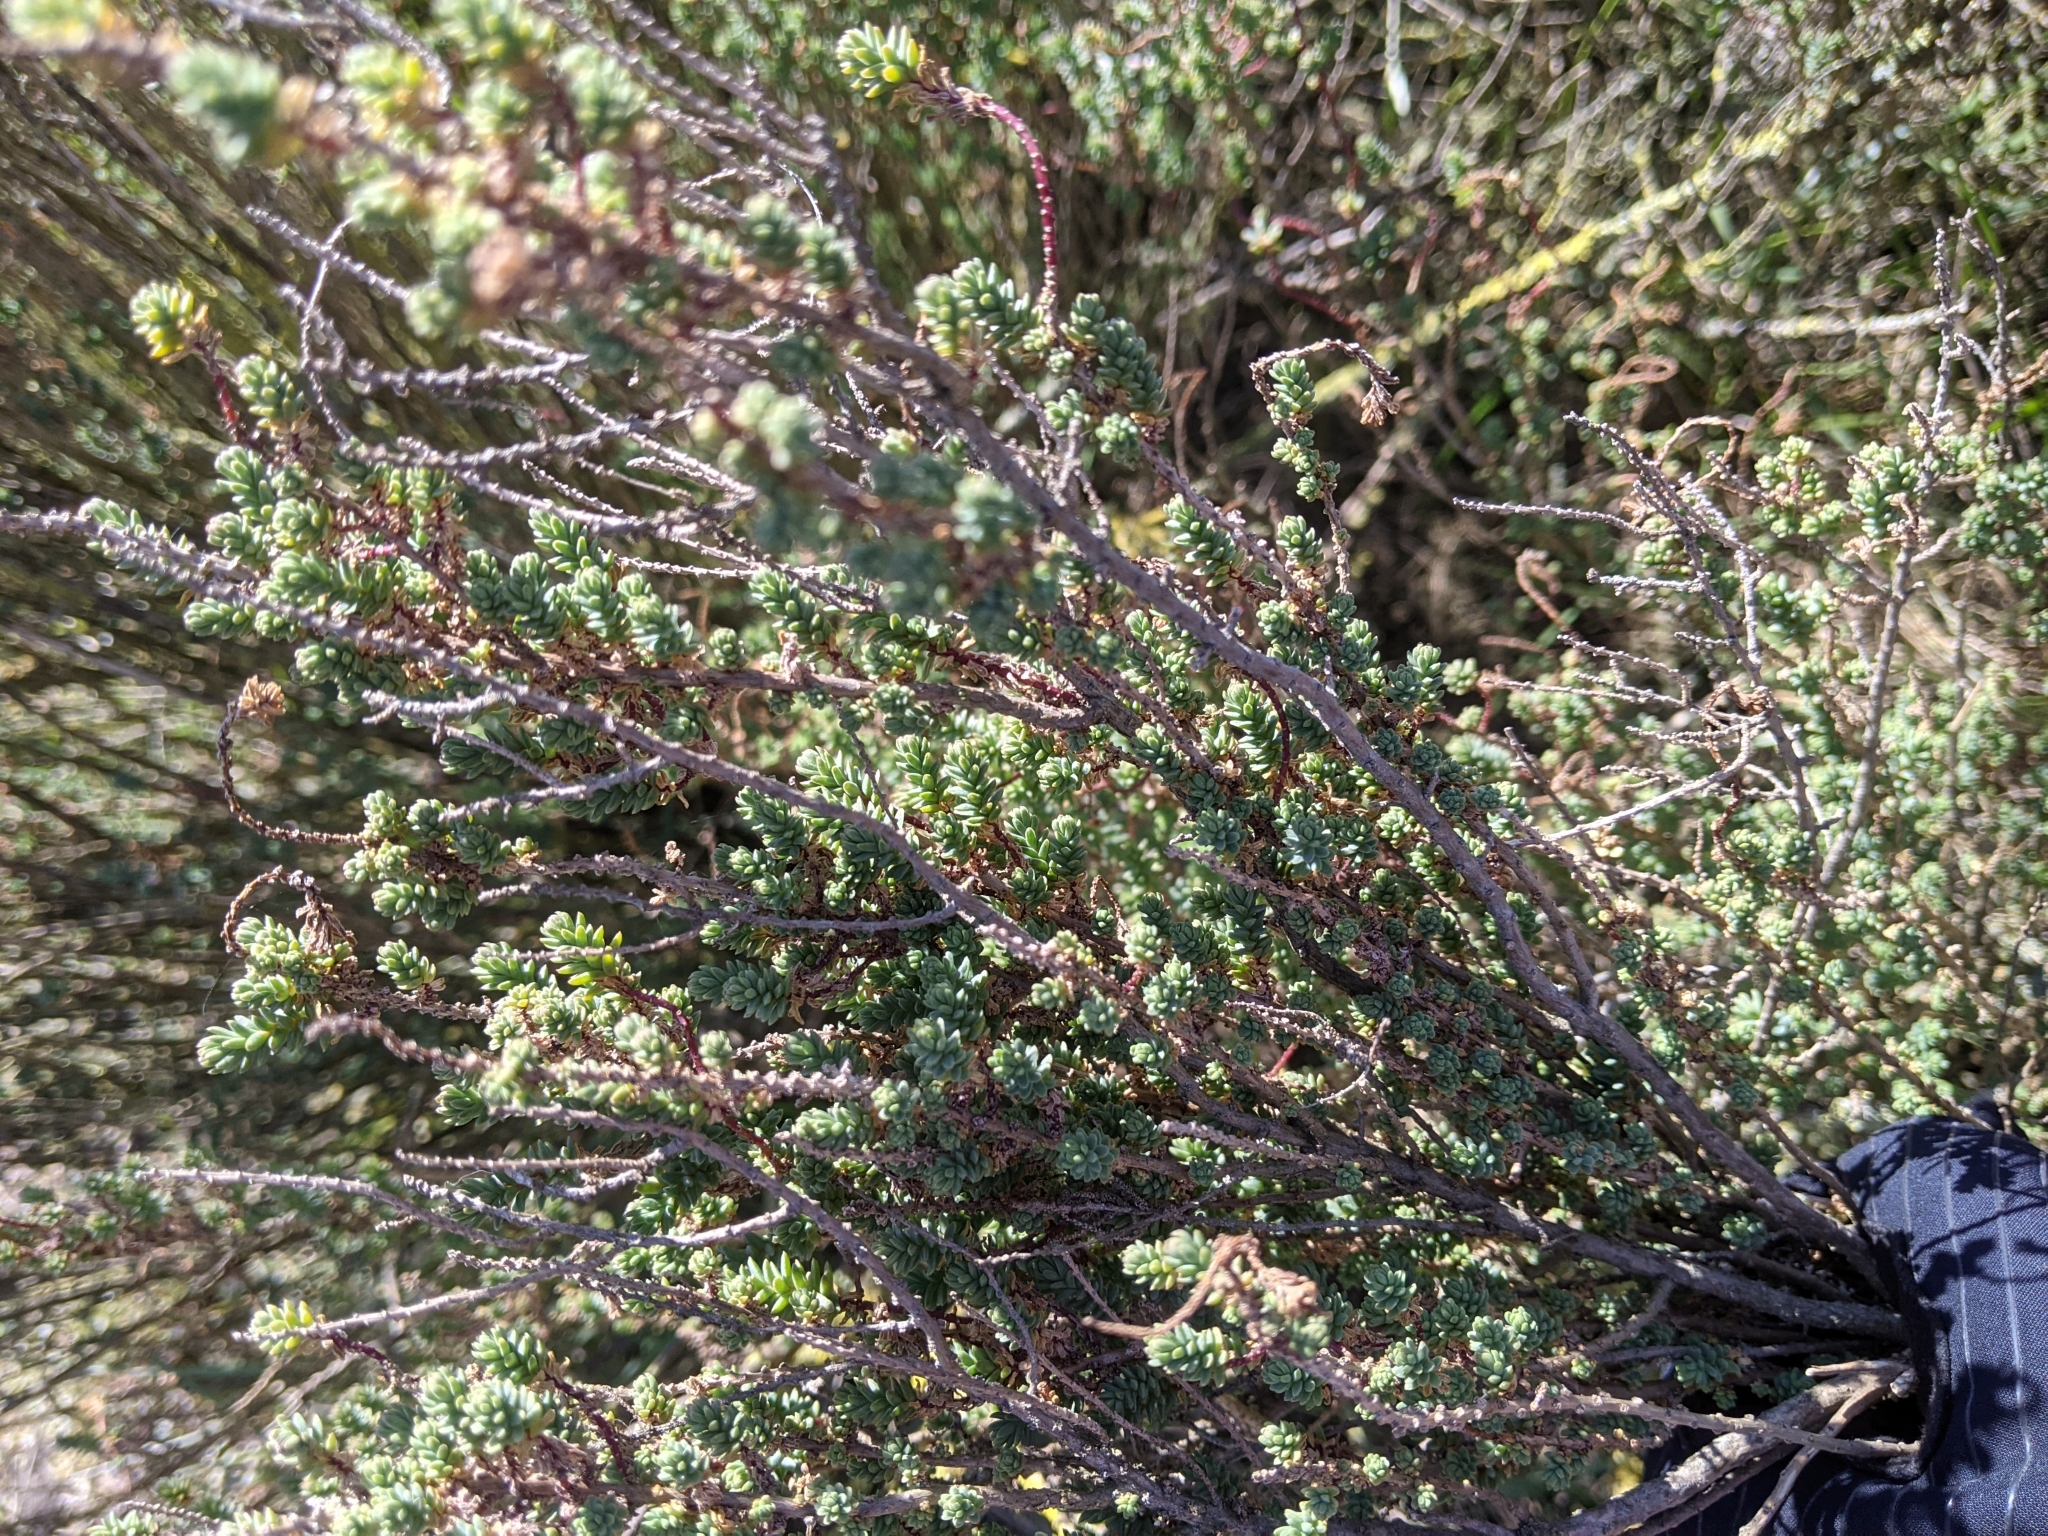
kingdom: Plantae
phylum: Tracheophyta
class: Magnoliopsida
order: Caryophyllales
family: Amaranthaceae
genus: Suaeda
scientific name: Suaeda vera
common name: Shrubby sea-blite
